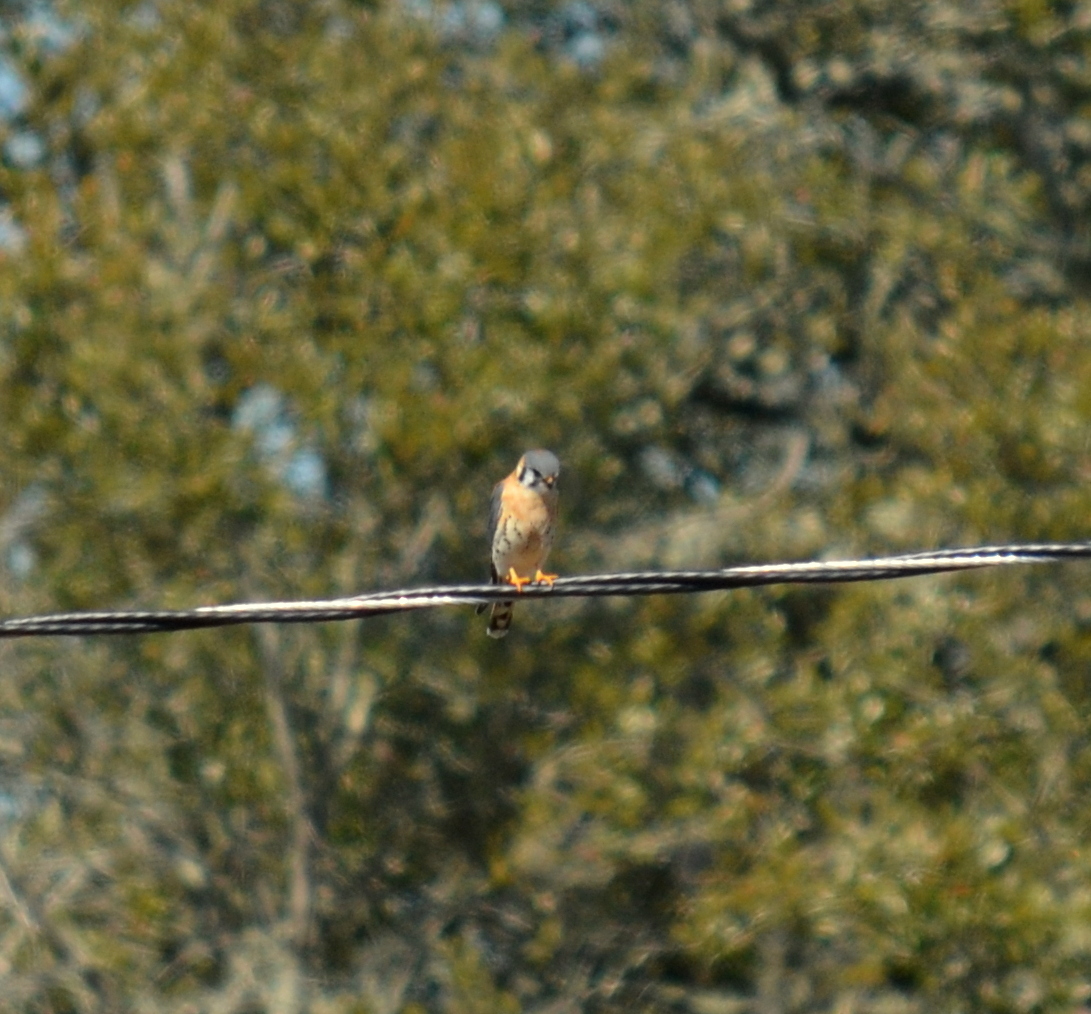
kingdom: Animalia
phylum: Chordata
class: Aves
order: Falconiformes
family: Falconidae
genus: Falco
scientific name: Falco sparverius
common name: American kestrel
